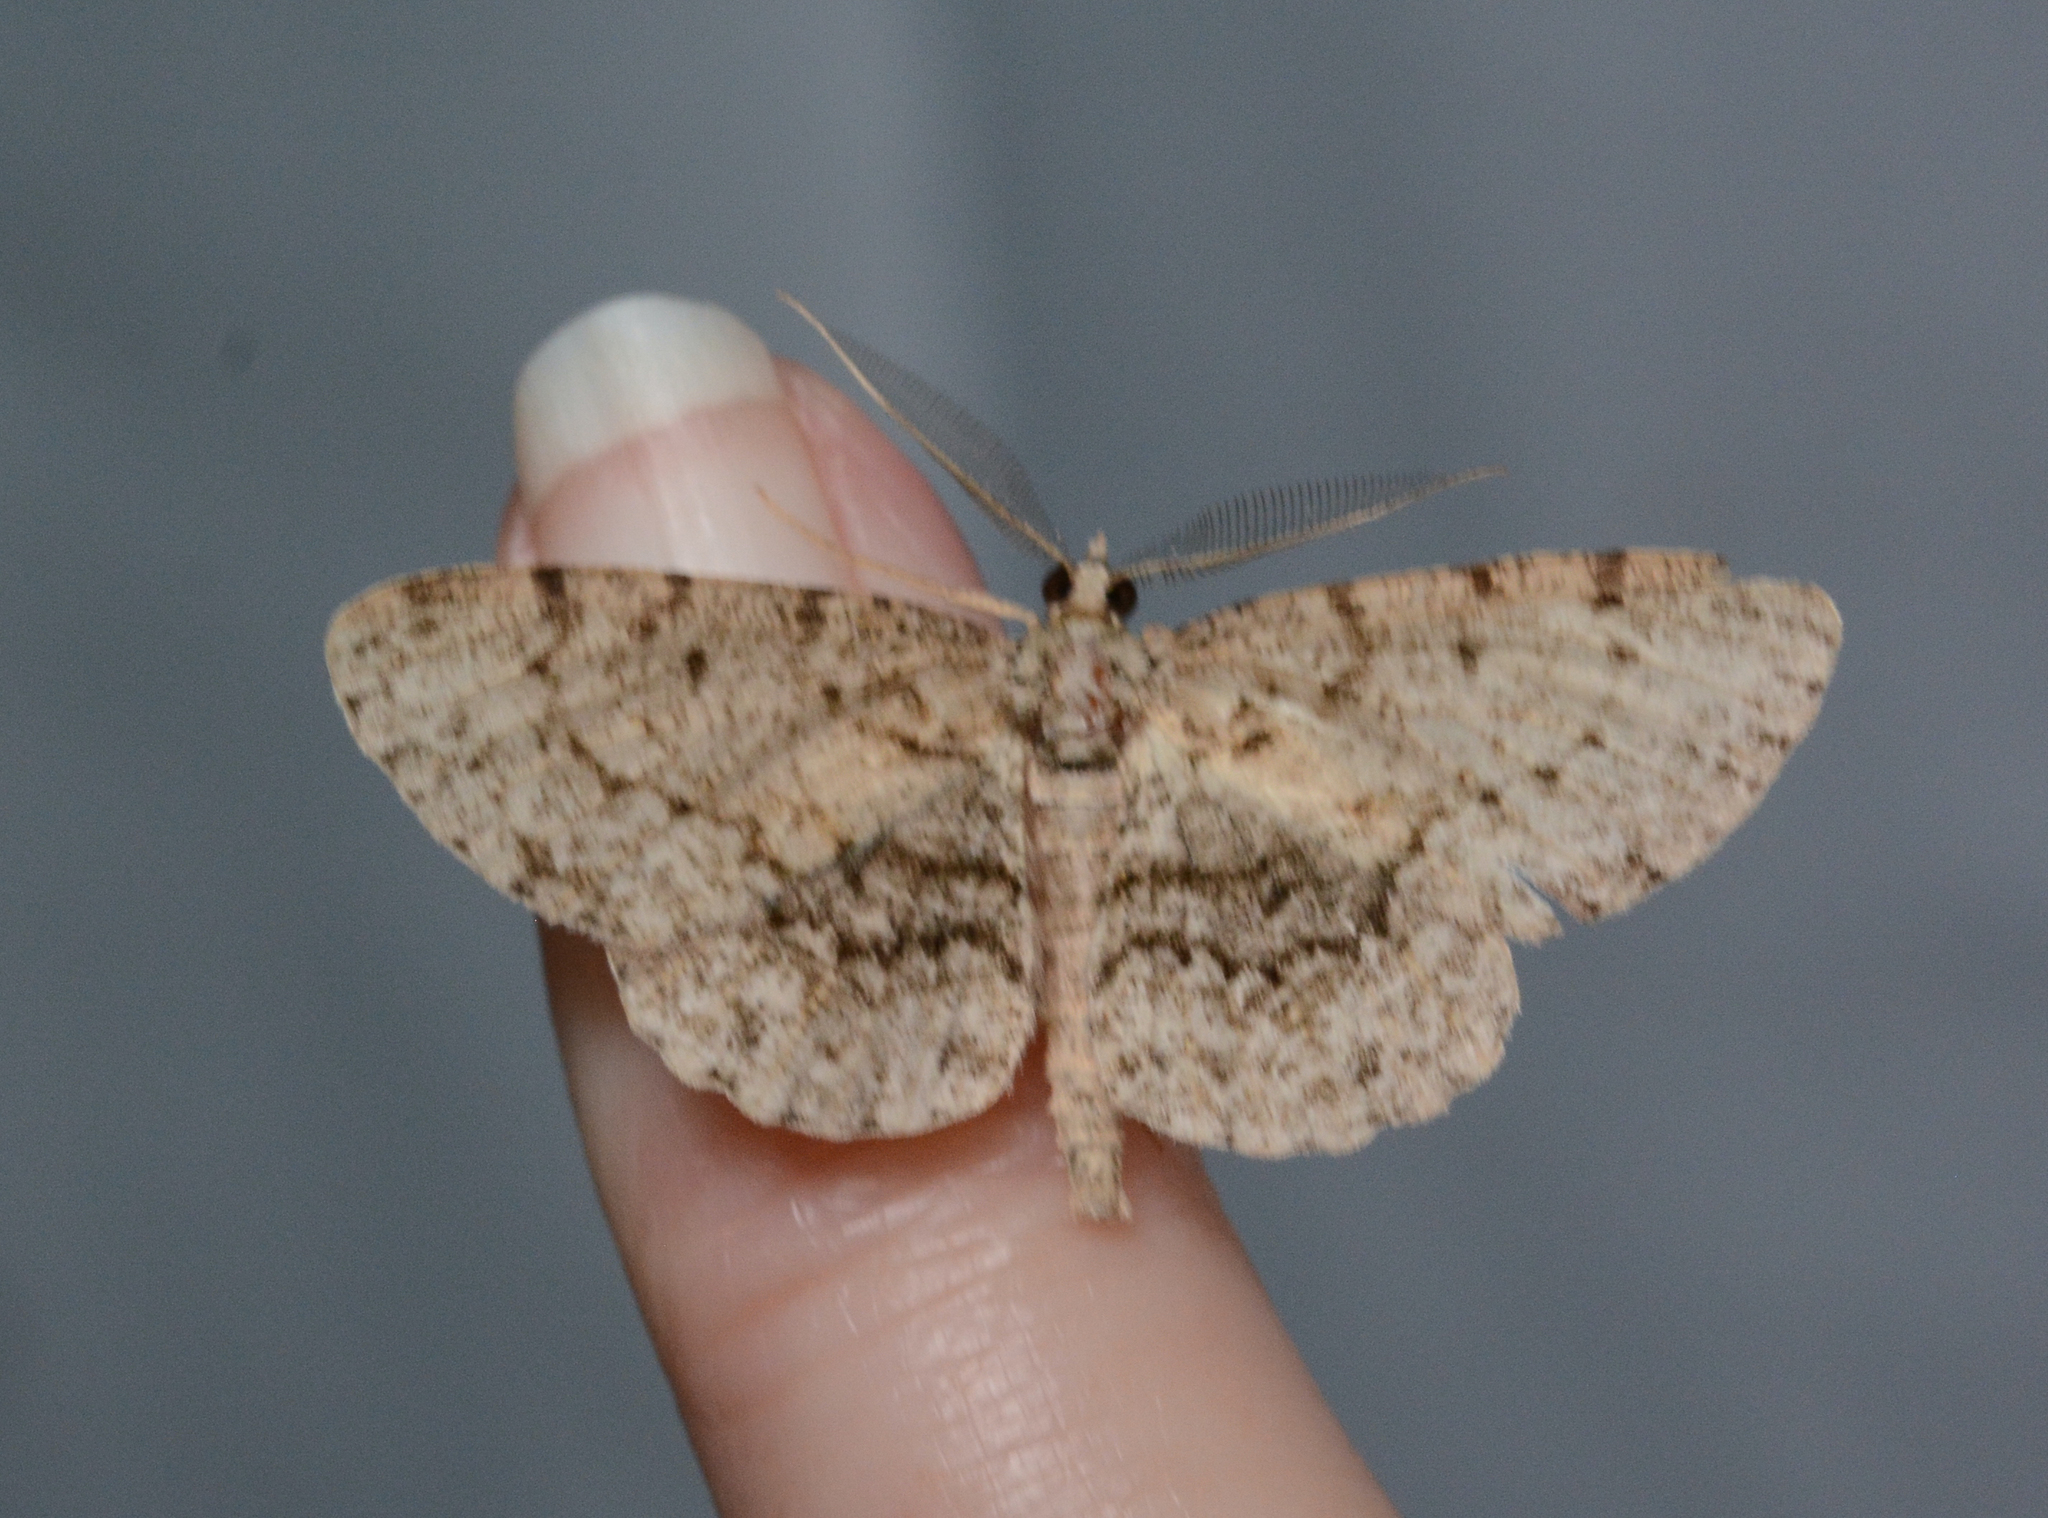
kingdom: Animalia
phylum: Arthropoda
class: Insecta
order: Lepidoptera
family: Geometridae
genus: Protoboarmia
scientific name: Protoboarmia porcelaria
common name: Porcelain gray
